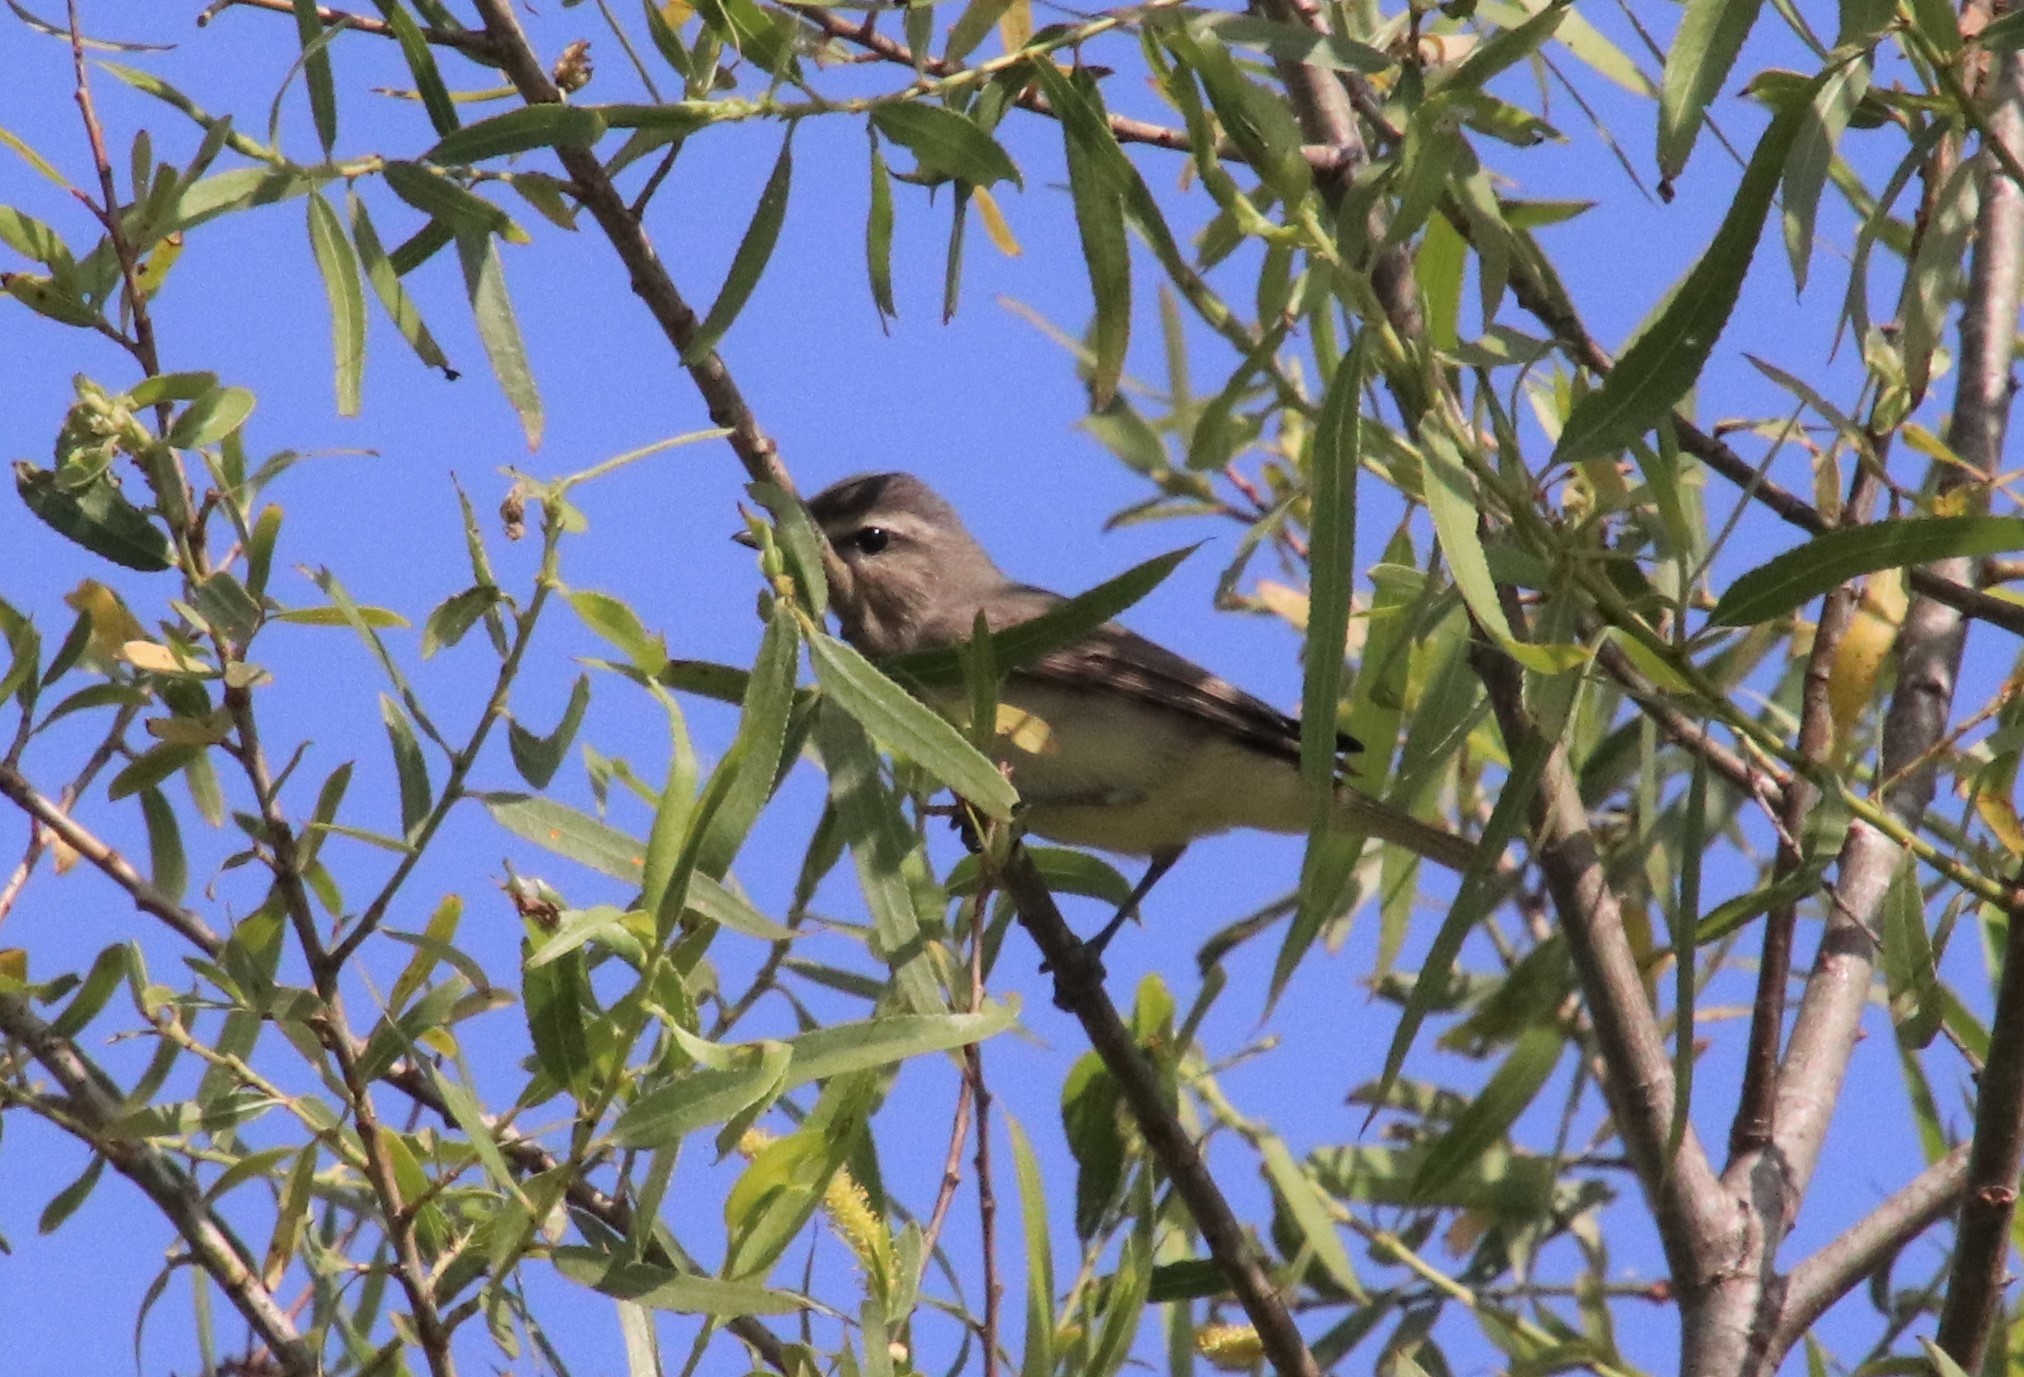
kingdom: Animalia
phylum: Chordata
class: Aves
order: Passeriformes
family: Vireonidae
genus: Vireo
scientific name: Vireo gilvus
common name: Warbling vireo
